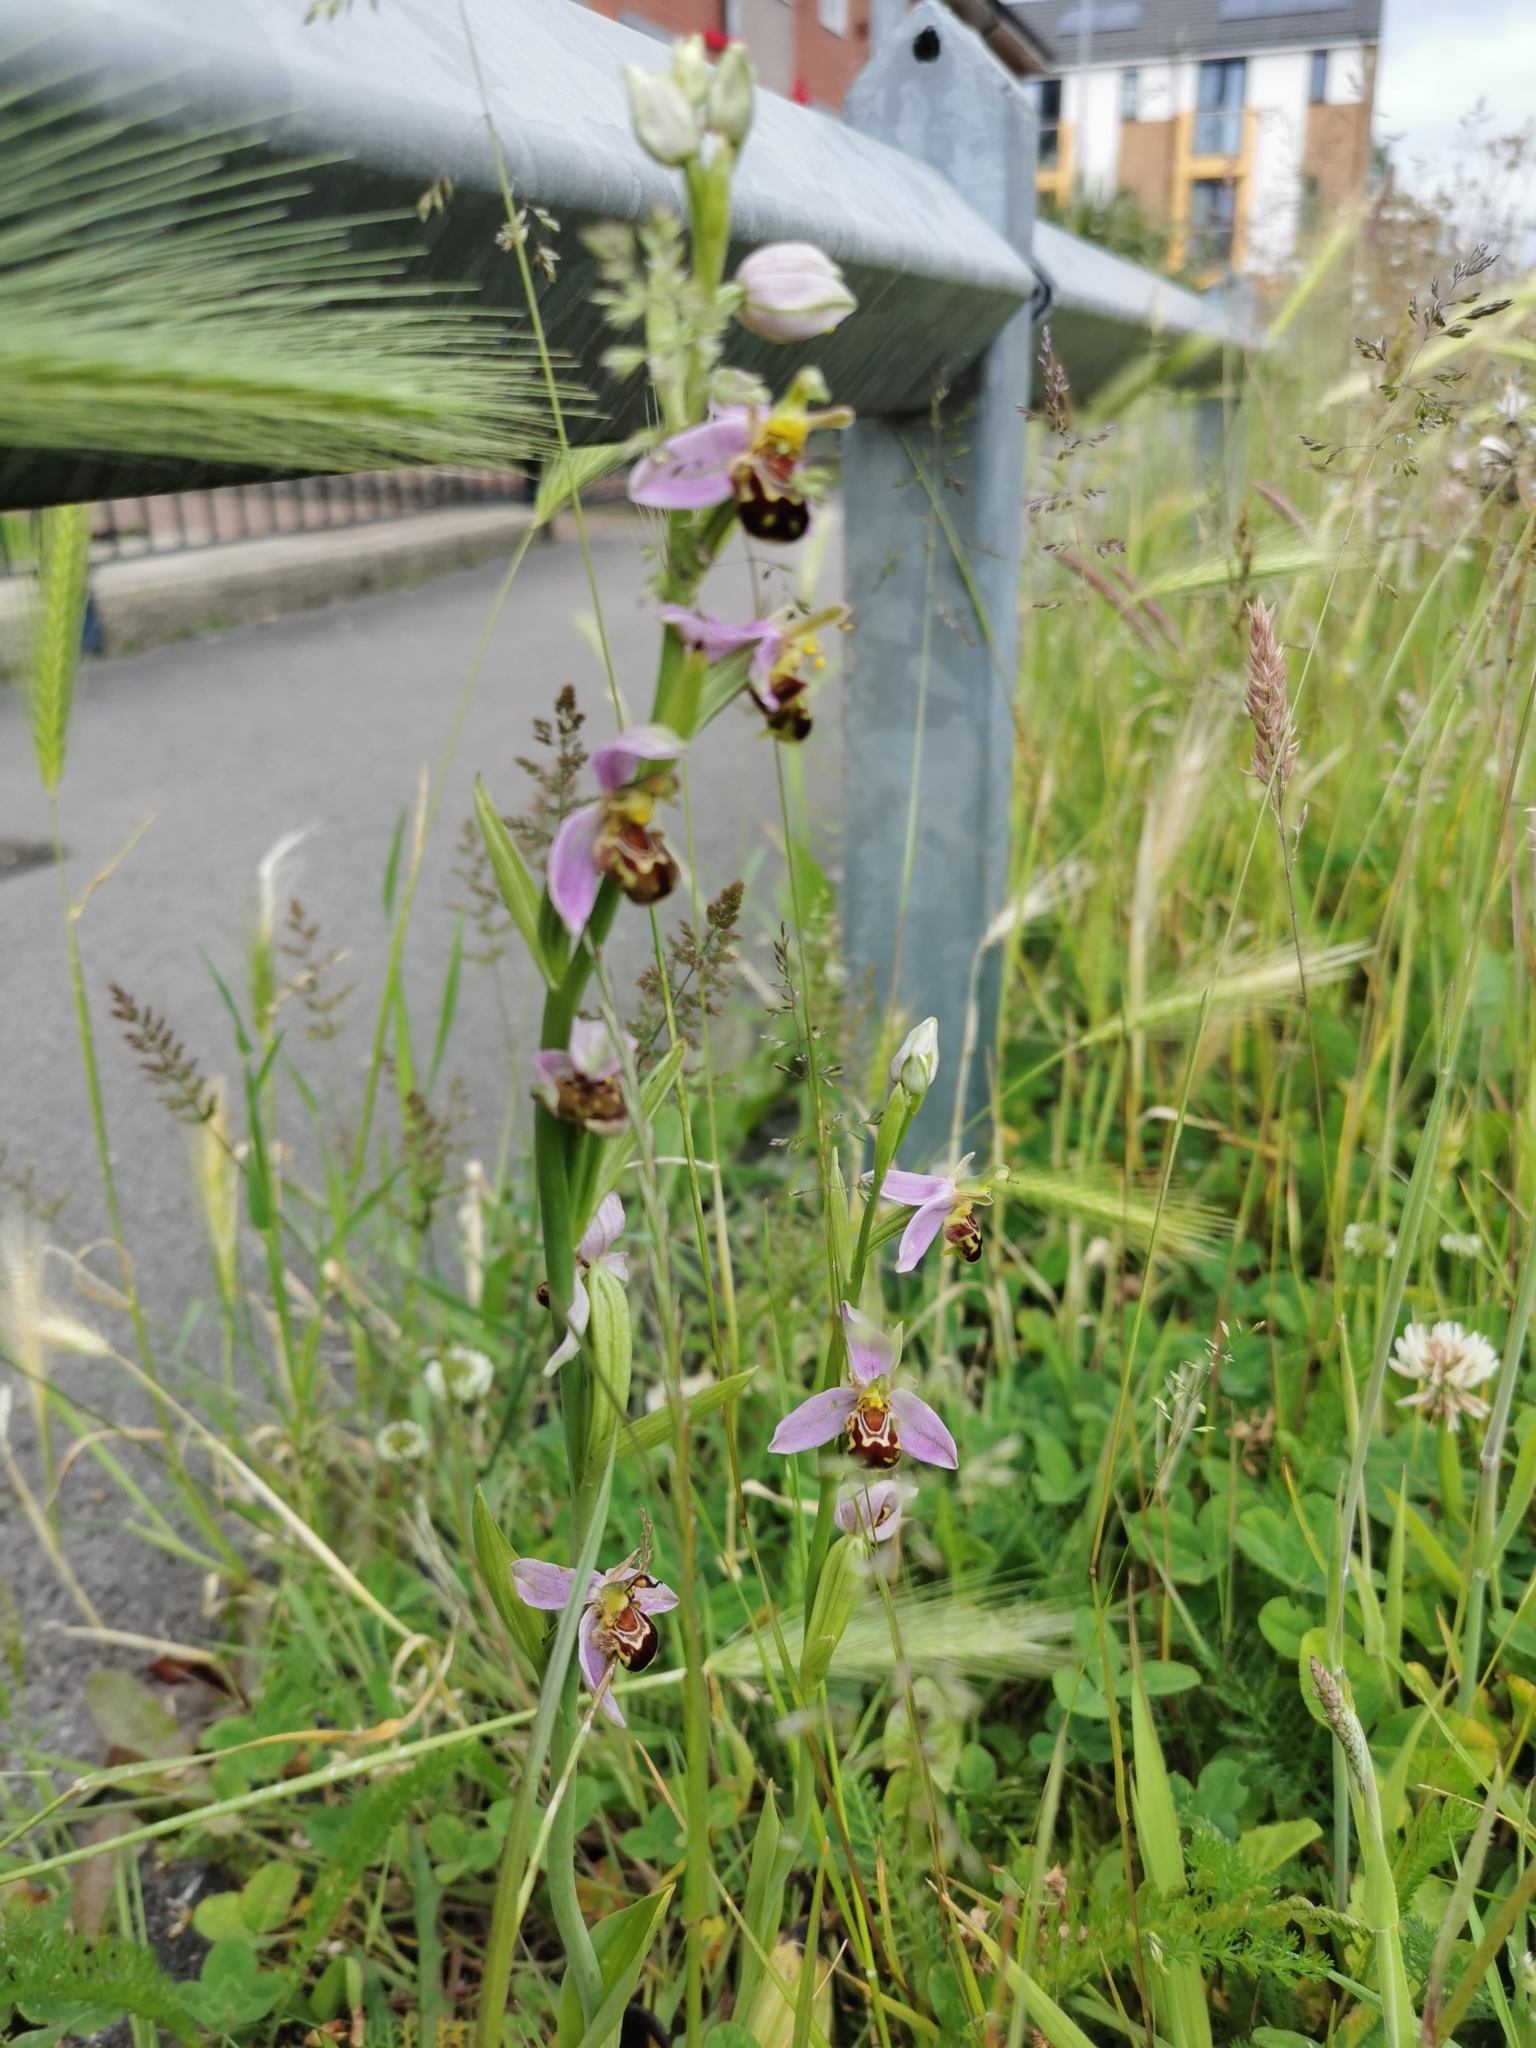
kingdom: Plantae
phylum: Tracheophyta
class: Liliopsida
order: Asparagales
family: Orchidaceae
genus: Ophrys
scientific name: Ophrys apifera
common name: Bee orchid
